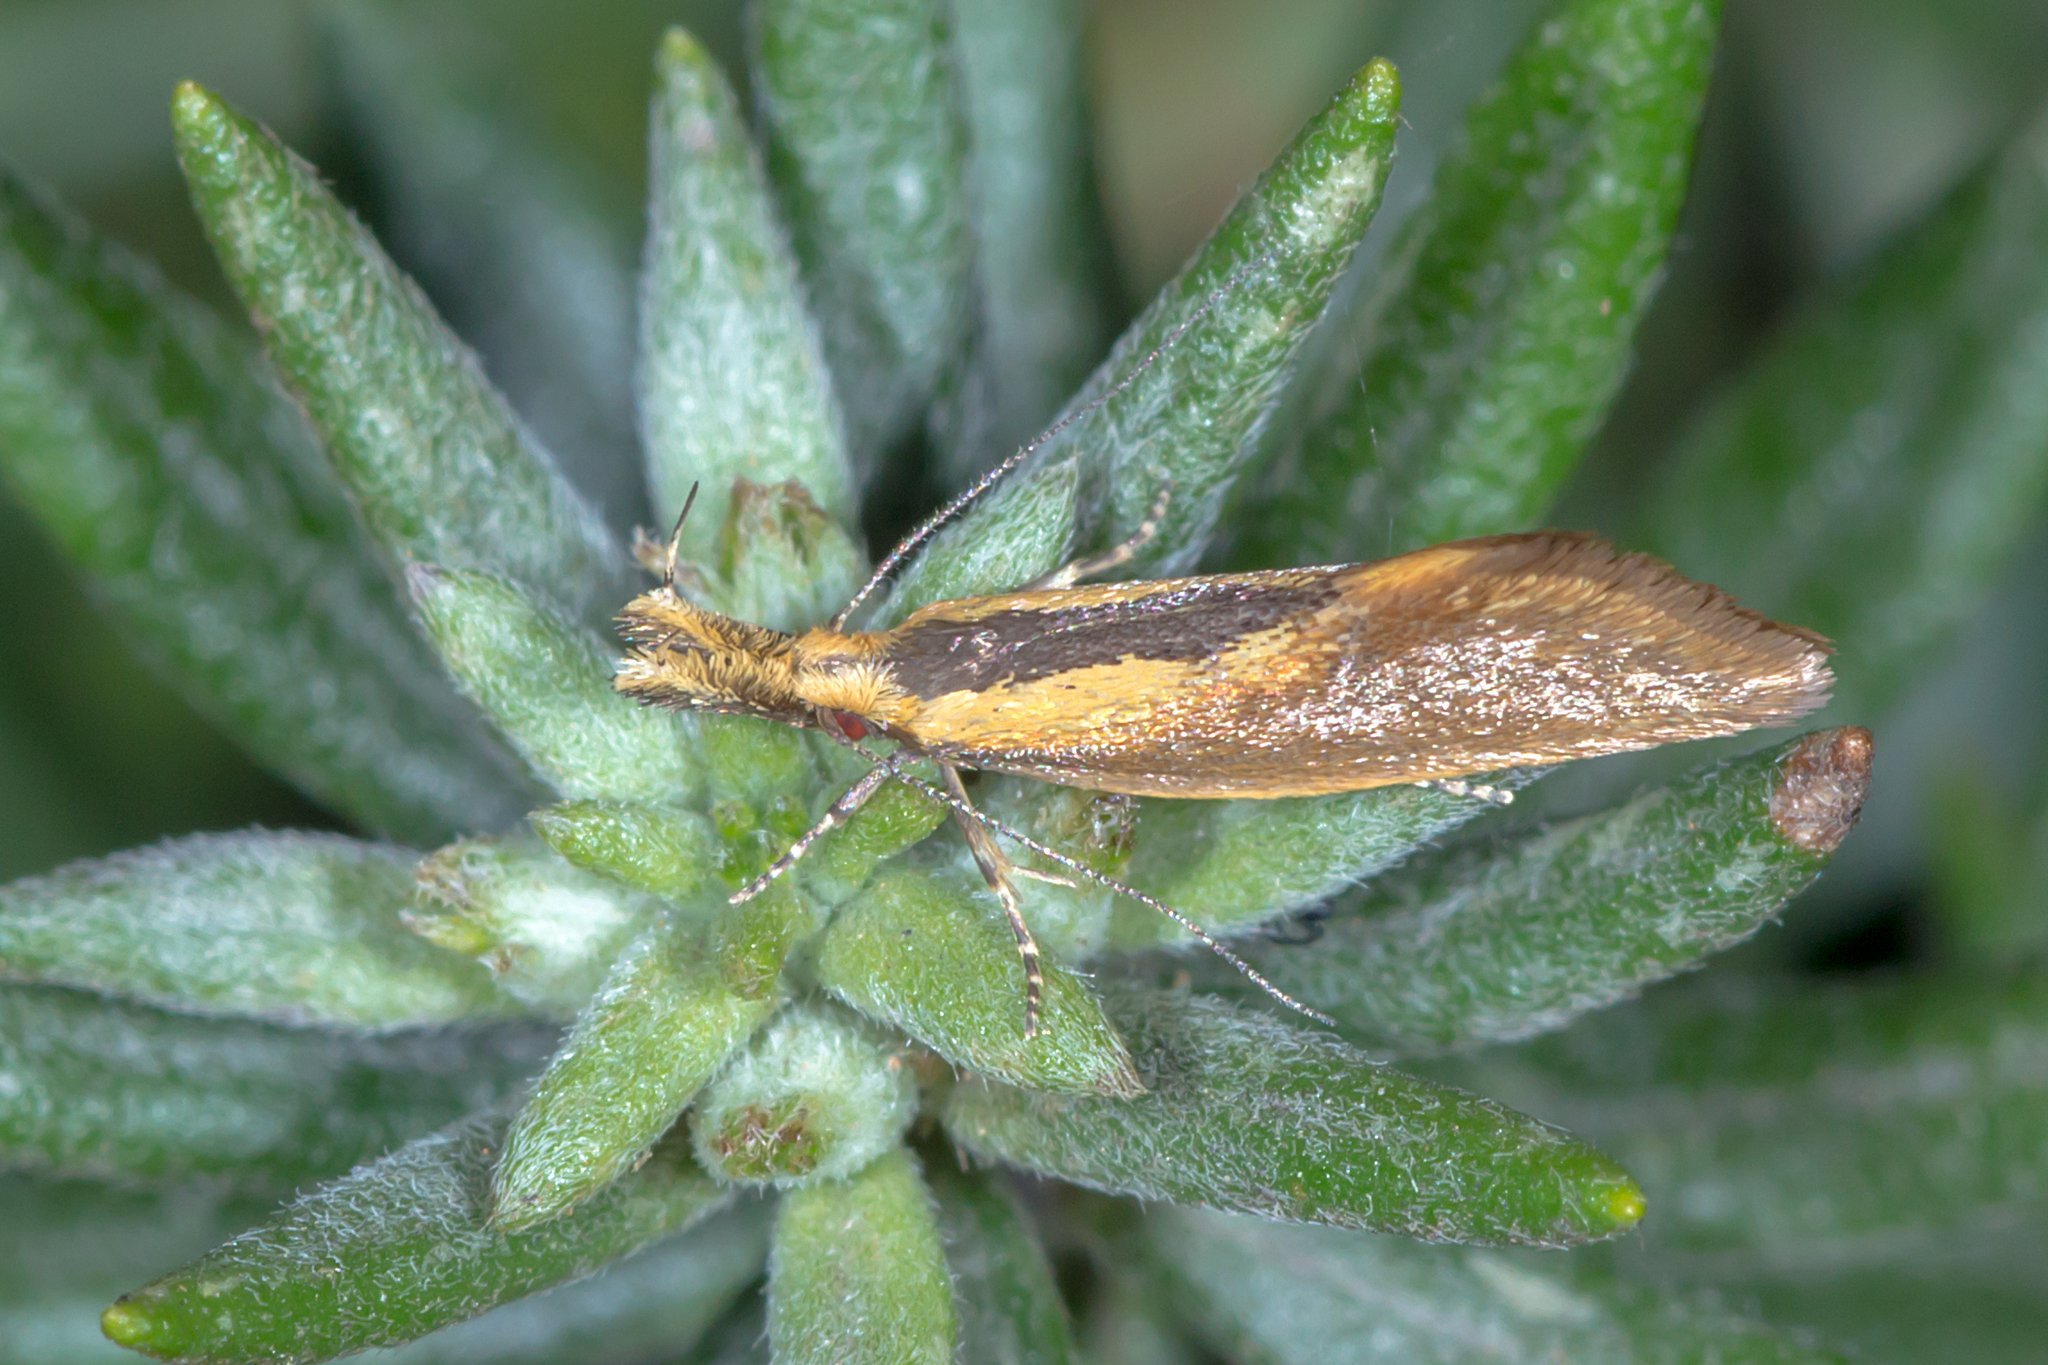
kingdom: Animalia
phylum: Arthropoda
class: Insecta
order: Lepidoptera
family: Oecophoridae
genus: Thema
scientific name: Thema macroscia
